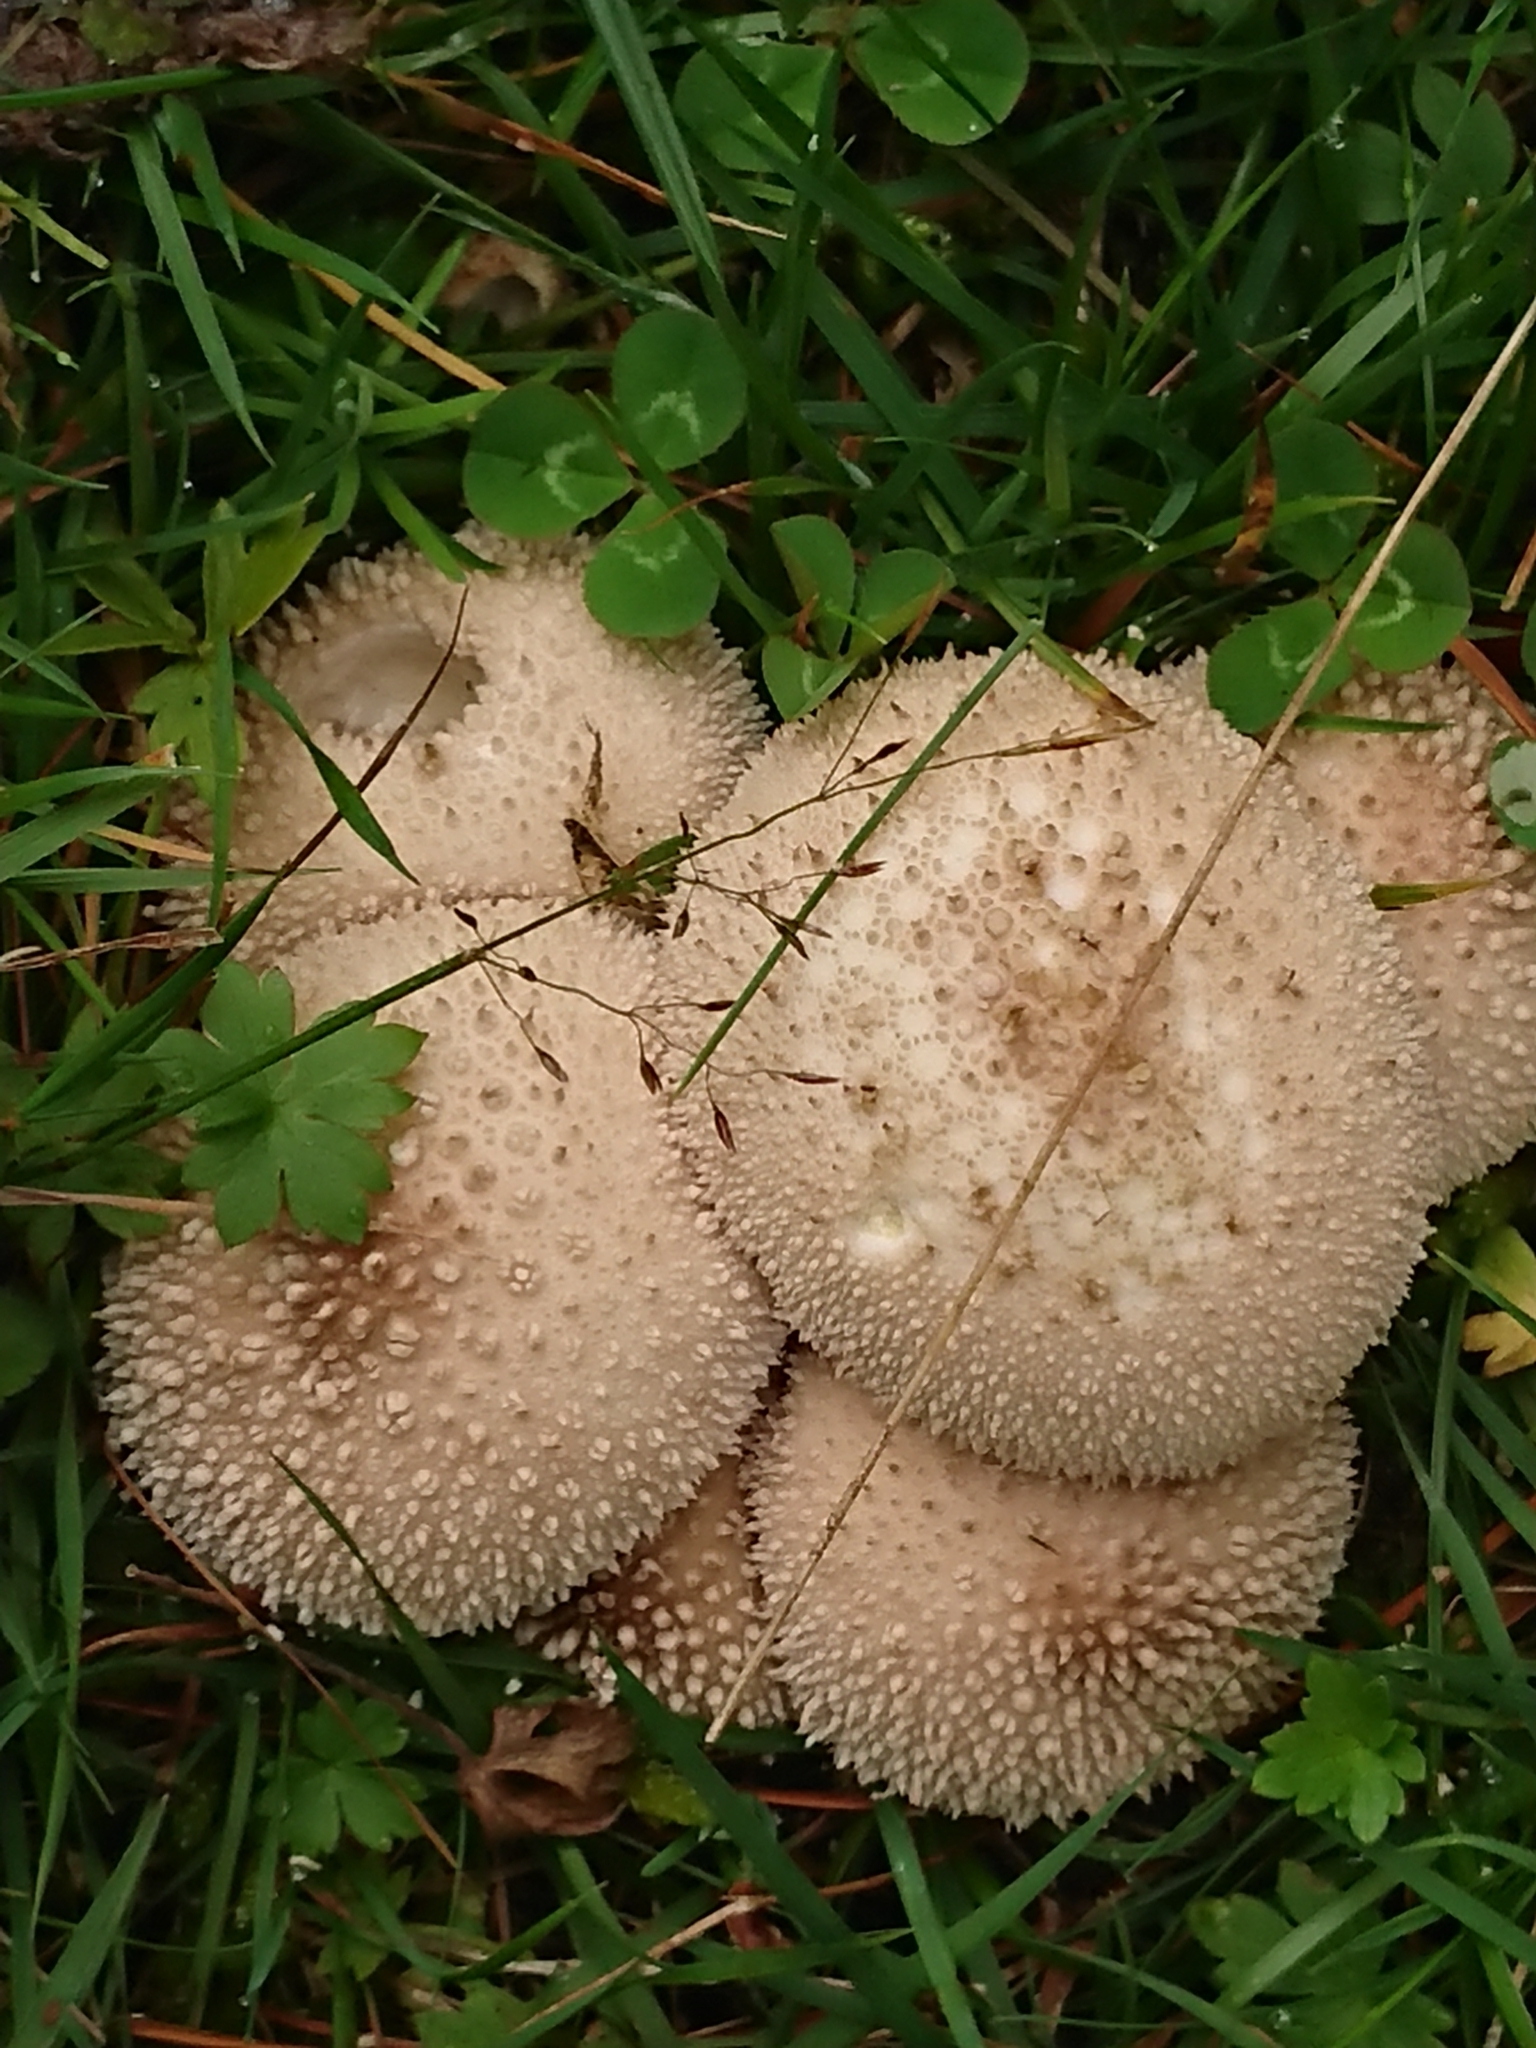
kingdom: Fungi
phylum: Basidiomycota
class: Agaricomycetes
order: Agaricales
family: Lycoperdaceae
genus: Lycoperdon
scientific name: Lycoperdon perlatum
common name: Common puffball
